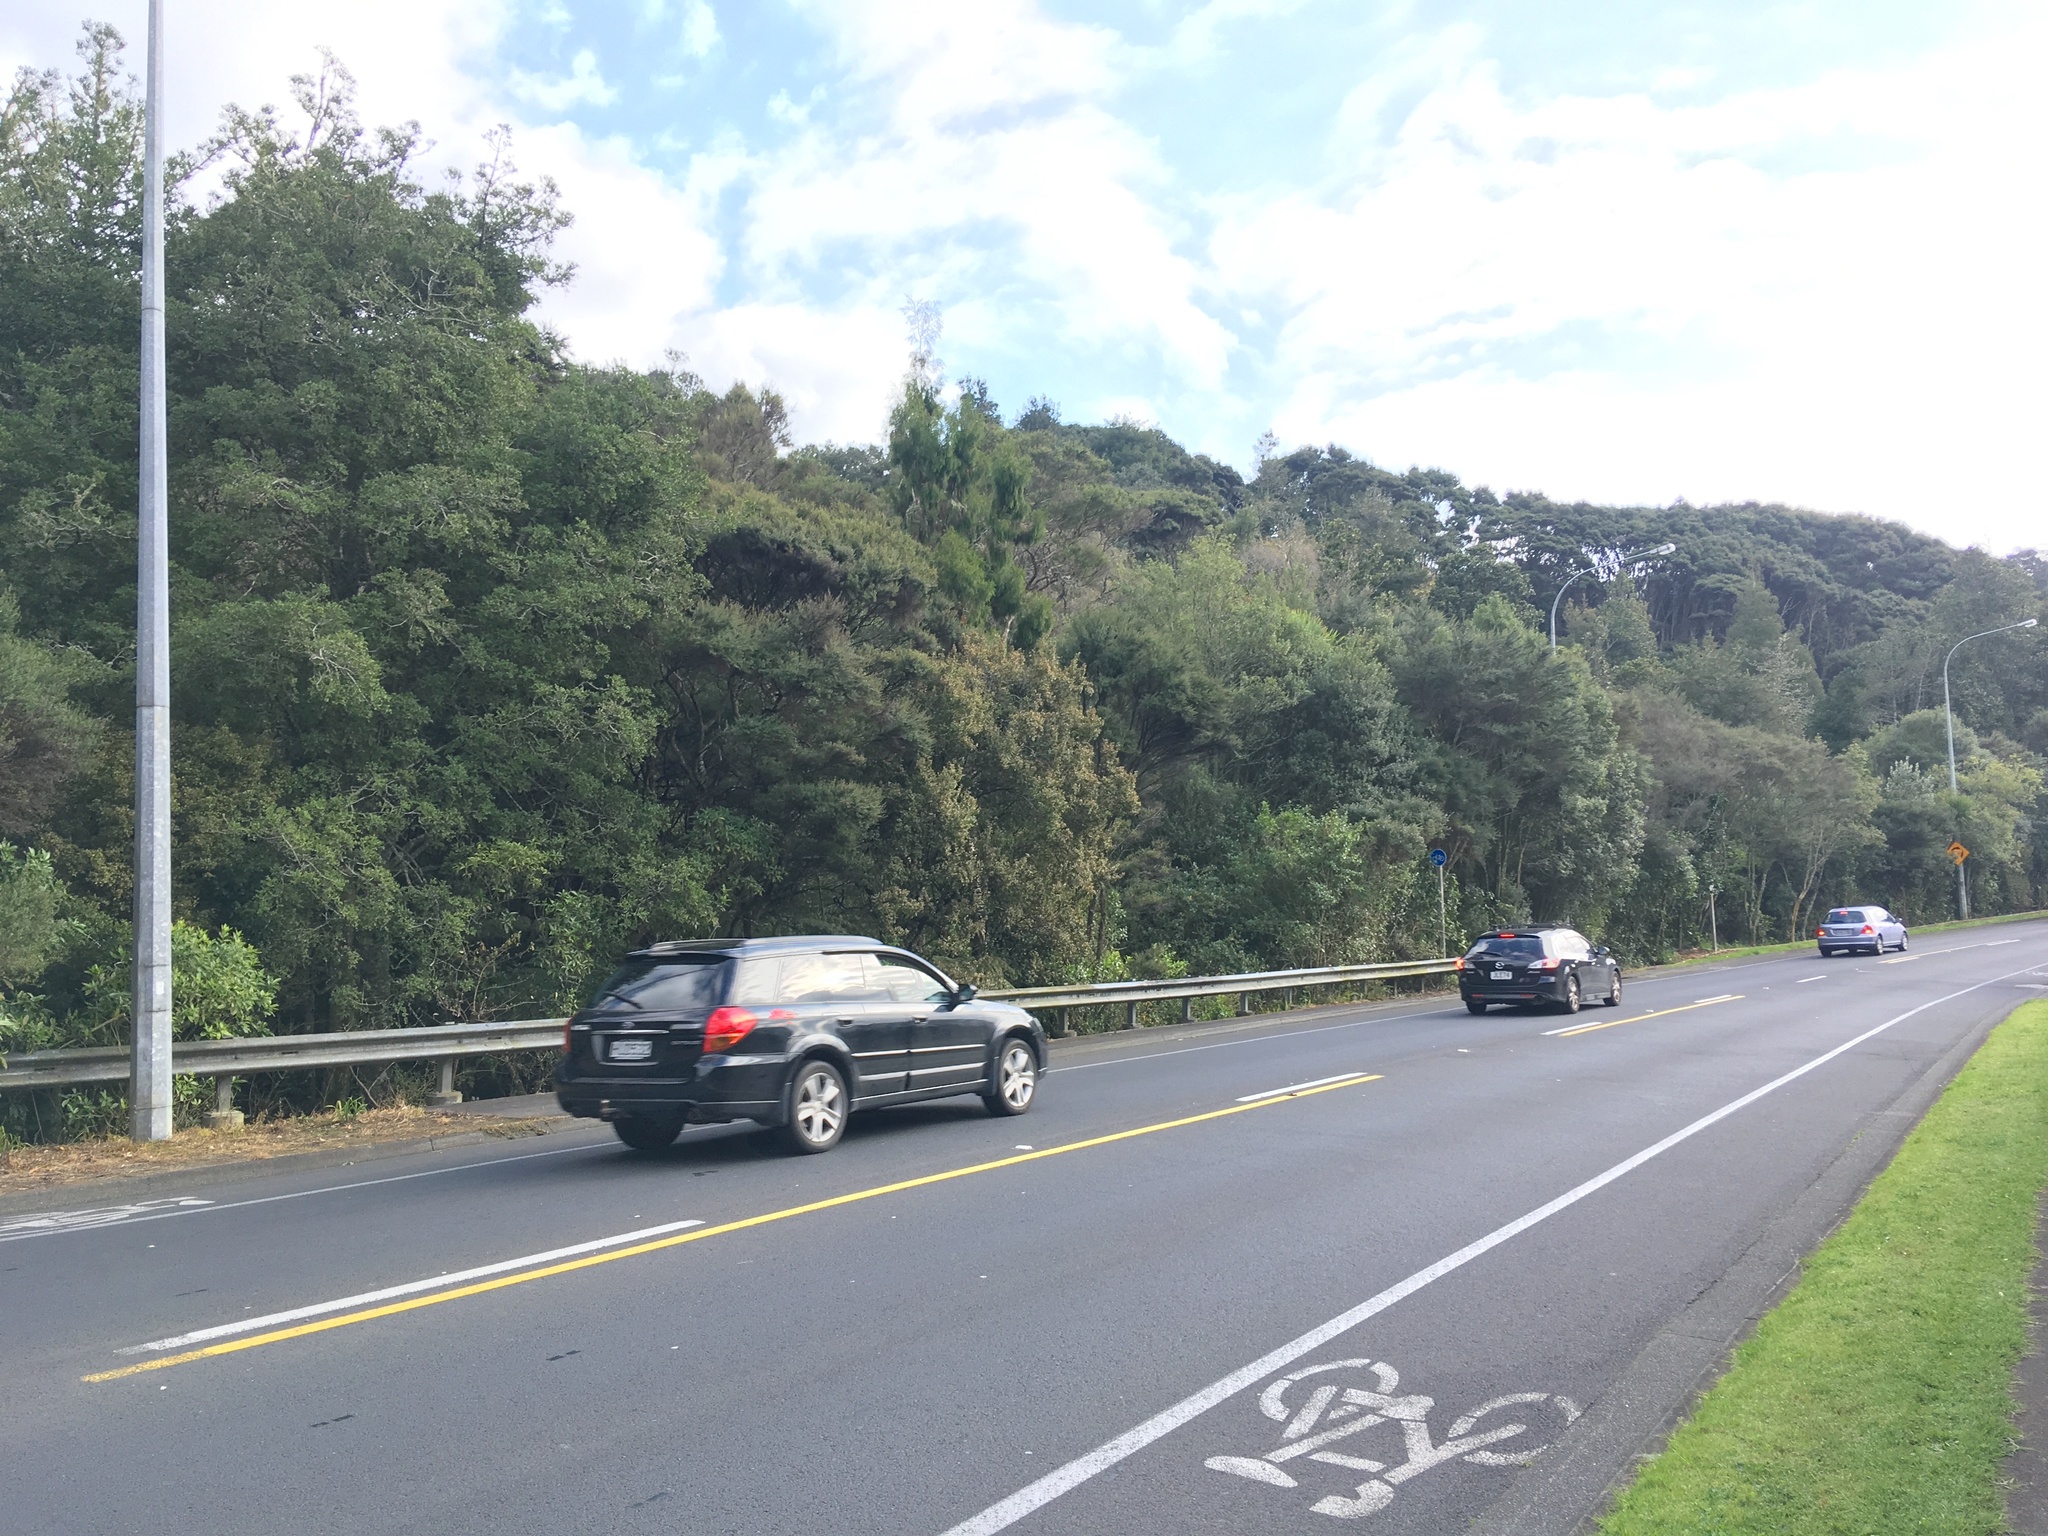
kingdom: Plantae
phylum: Tracheophyta
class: Pinopsida
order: Pinales
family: Phyllocladaceae
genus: Phyllocladus
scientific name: Phyllocladus trichomanoides
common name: Celery pine
